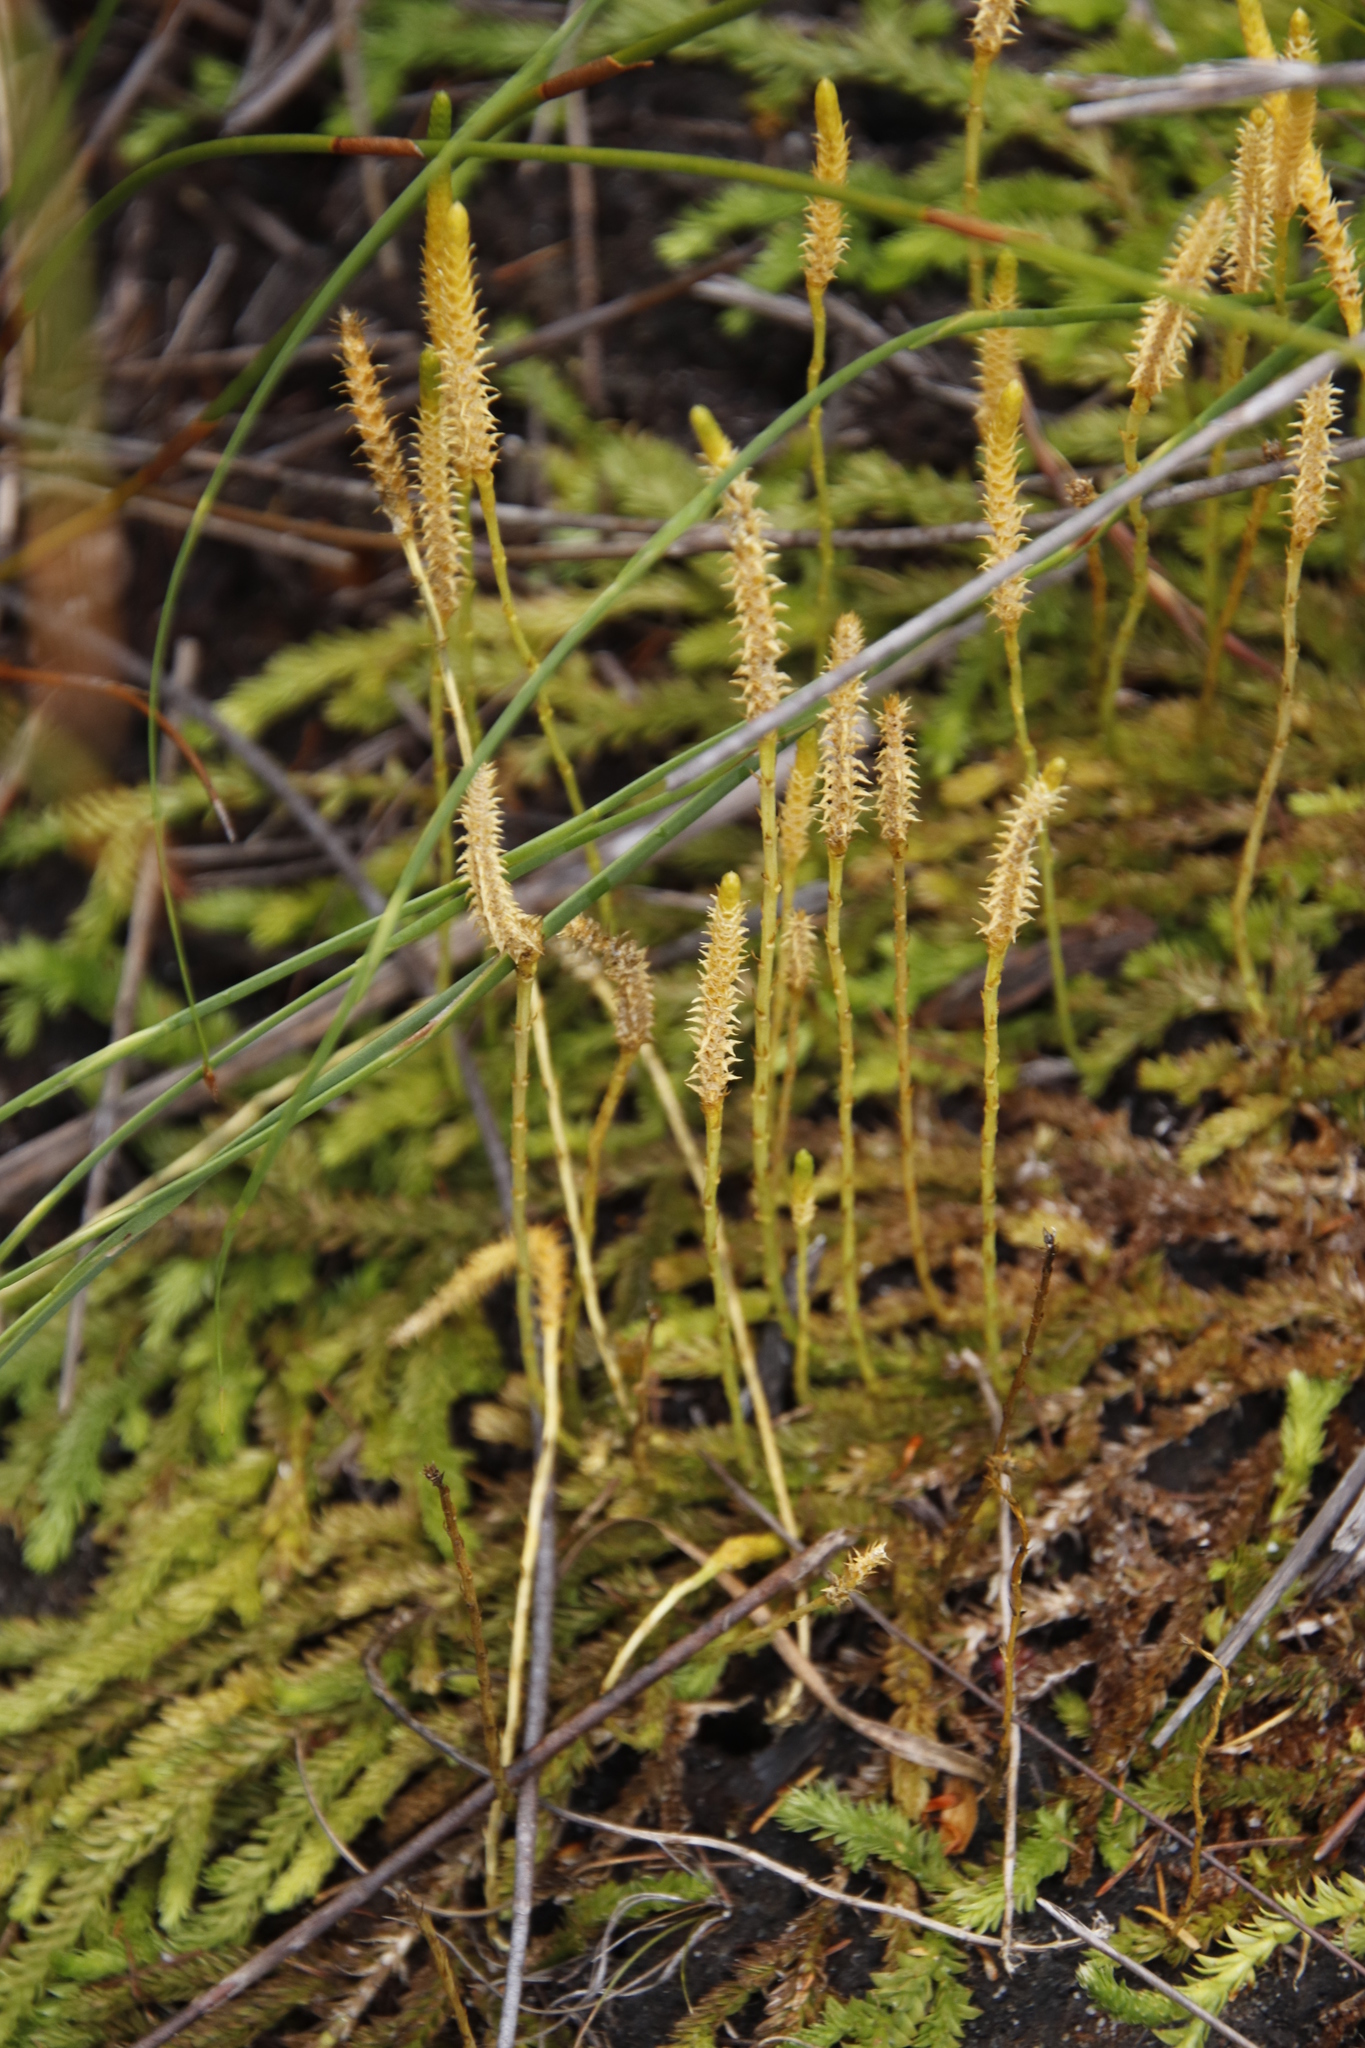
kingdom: Plantae
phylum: Tracheophyta
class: Lycopodiopsida
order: Lycopodiales
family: Lycopodiaceae
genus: Pseudolycopodiella
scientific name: Pseudolycopodiella caroliniana
